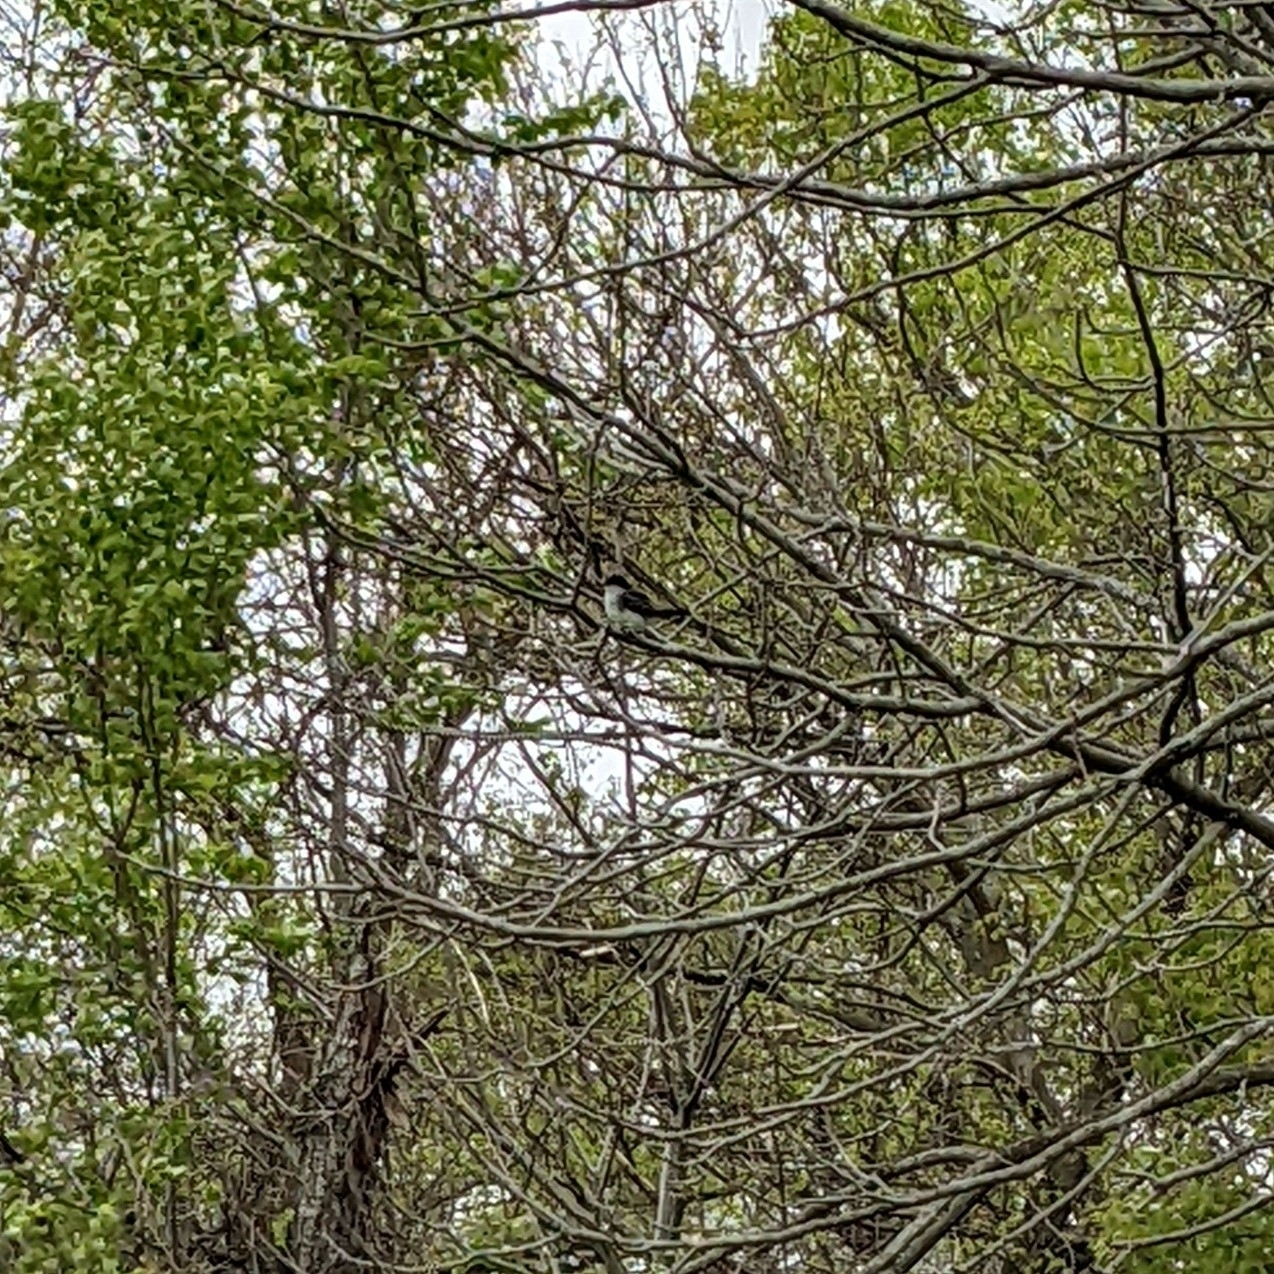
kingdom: Animalia
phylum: Chordata
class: Aves
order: Passeriformes
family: Tyrannidae
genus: Tyrannus
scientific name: Tyrannus tyrannus
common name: Eastern kingbird
